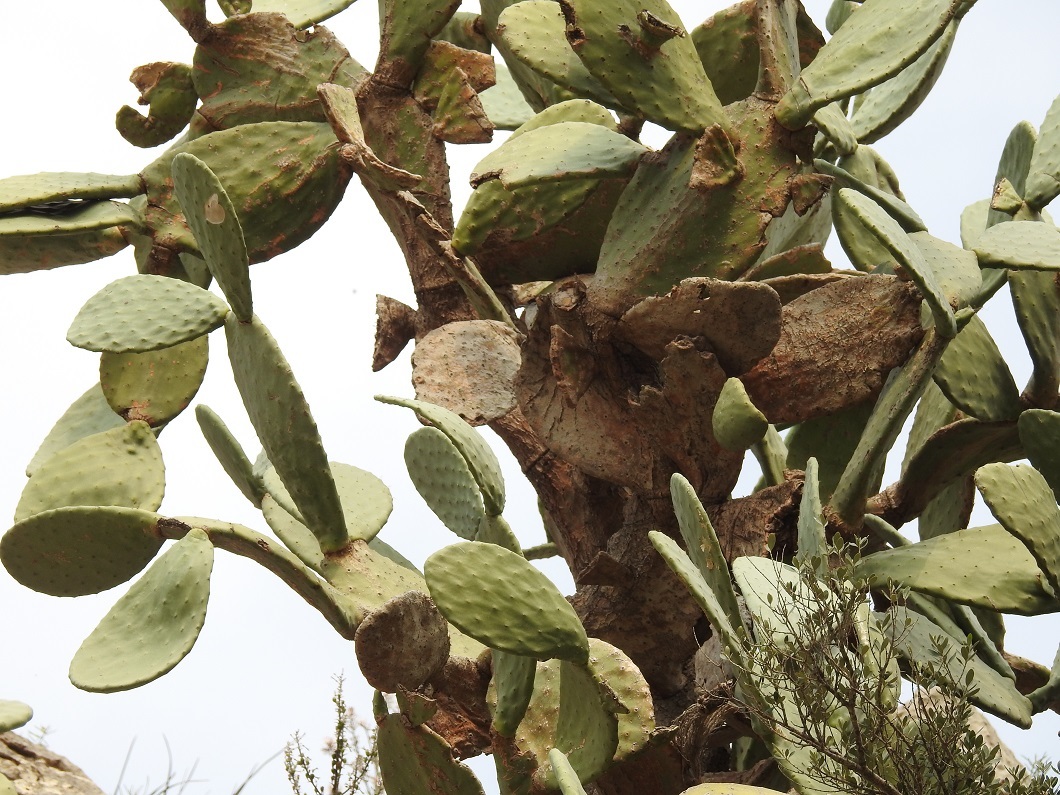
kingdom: Plantae
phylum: Tracheophyta
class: Magnoliopsida
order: Caryophyllales
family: Cactaceae
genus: Opuntia
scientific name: Opuntia ficus-indica
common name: Barbary fig
